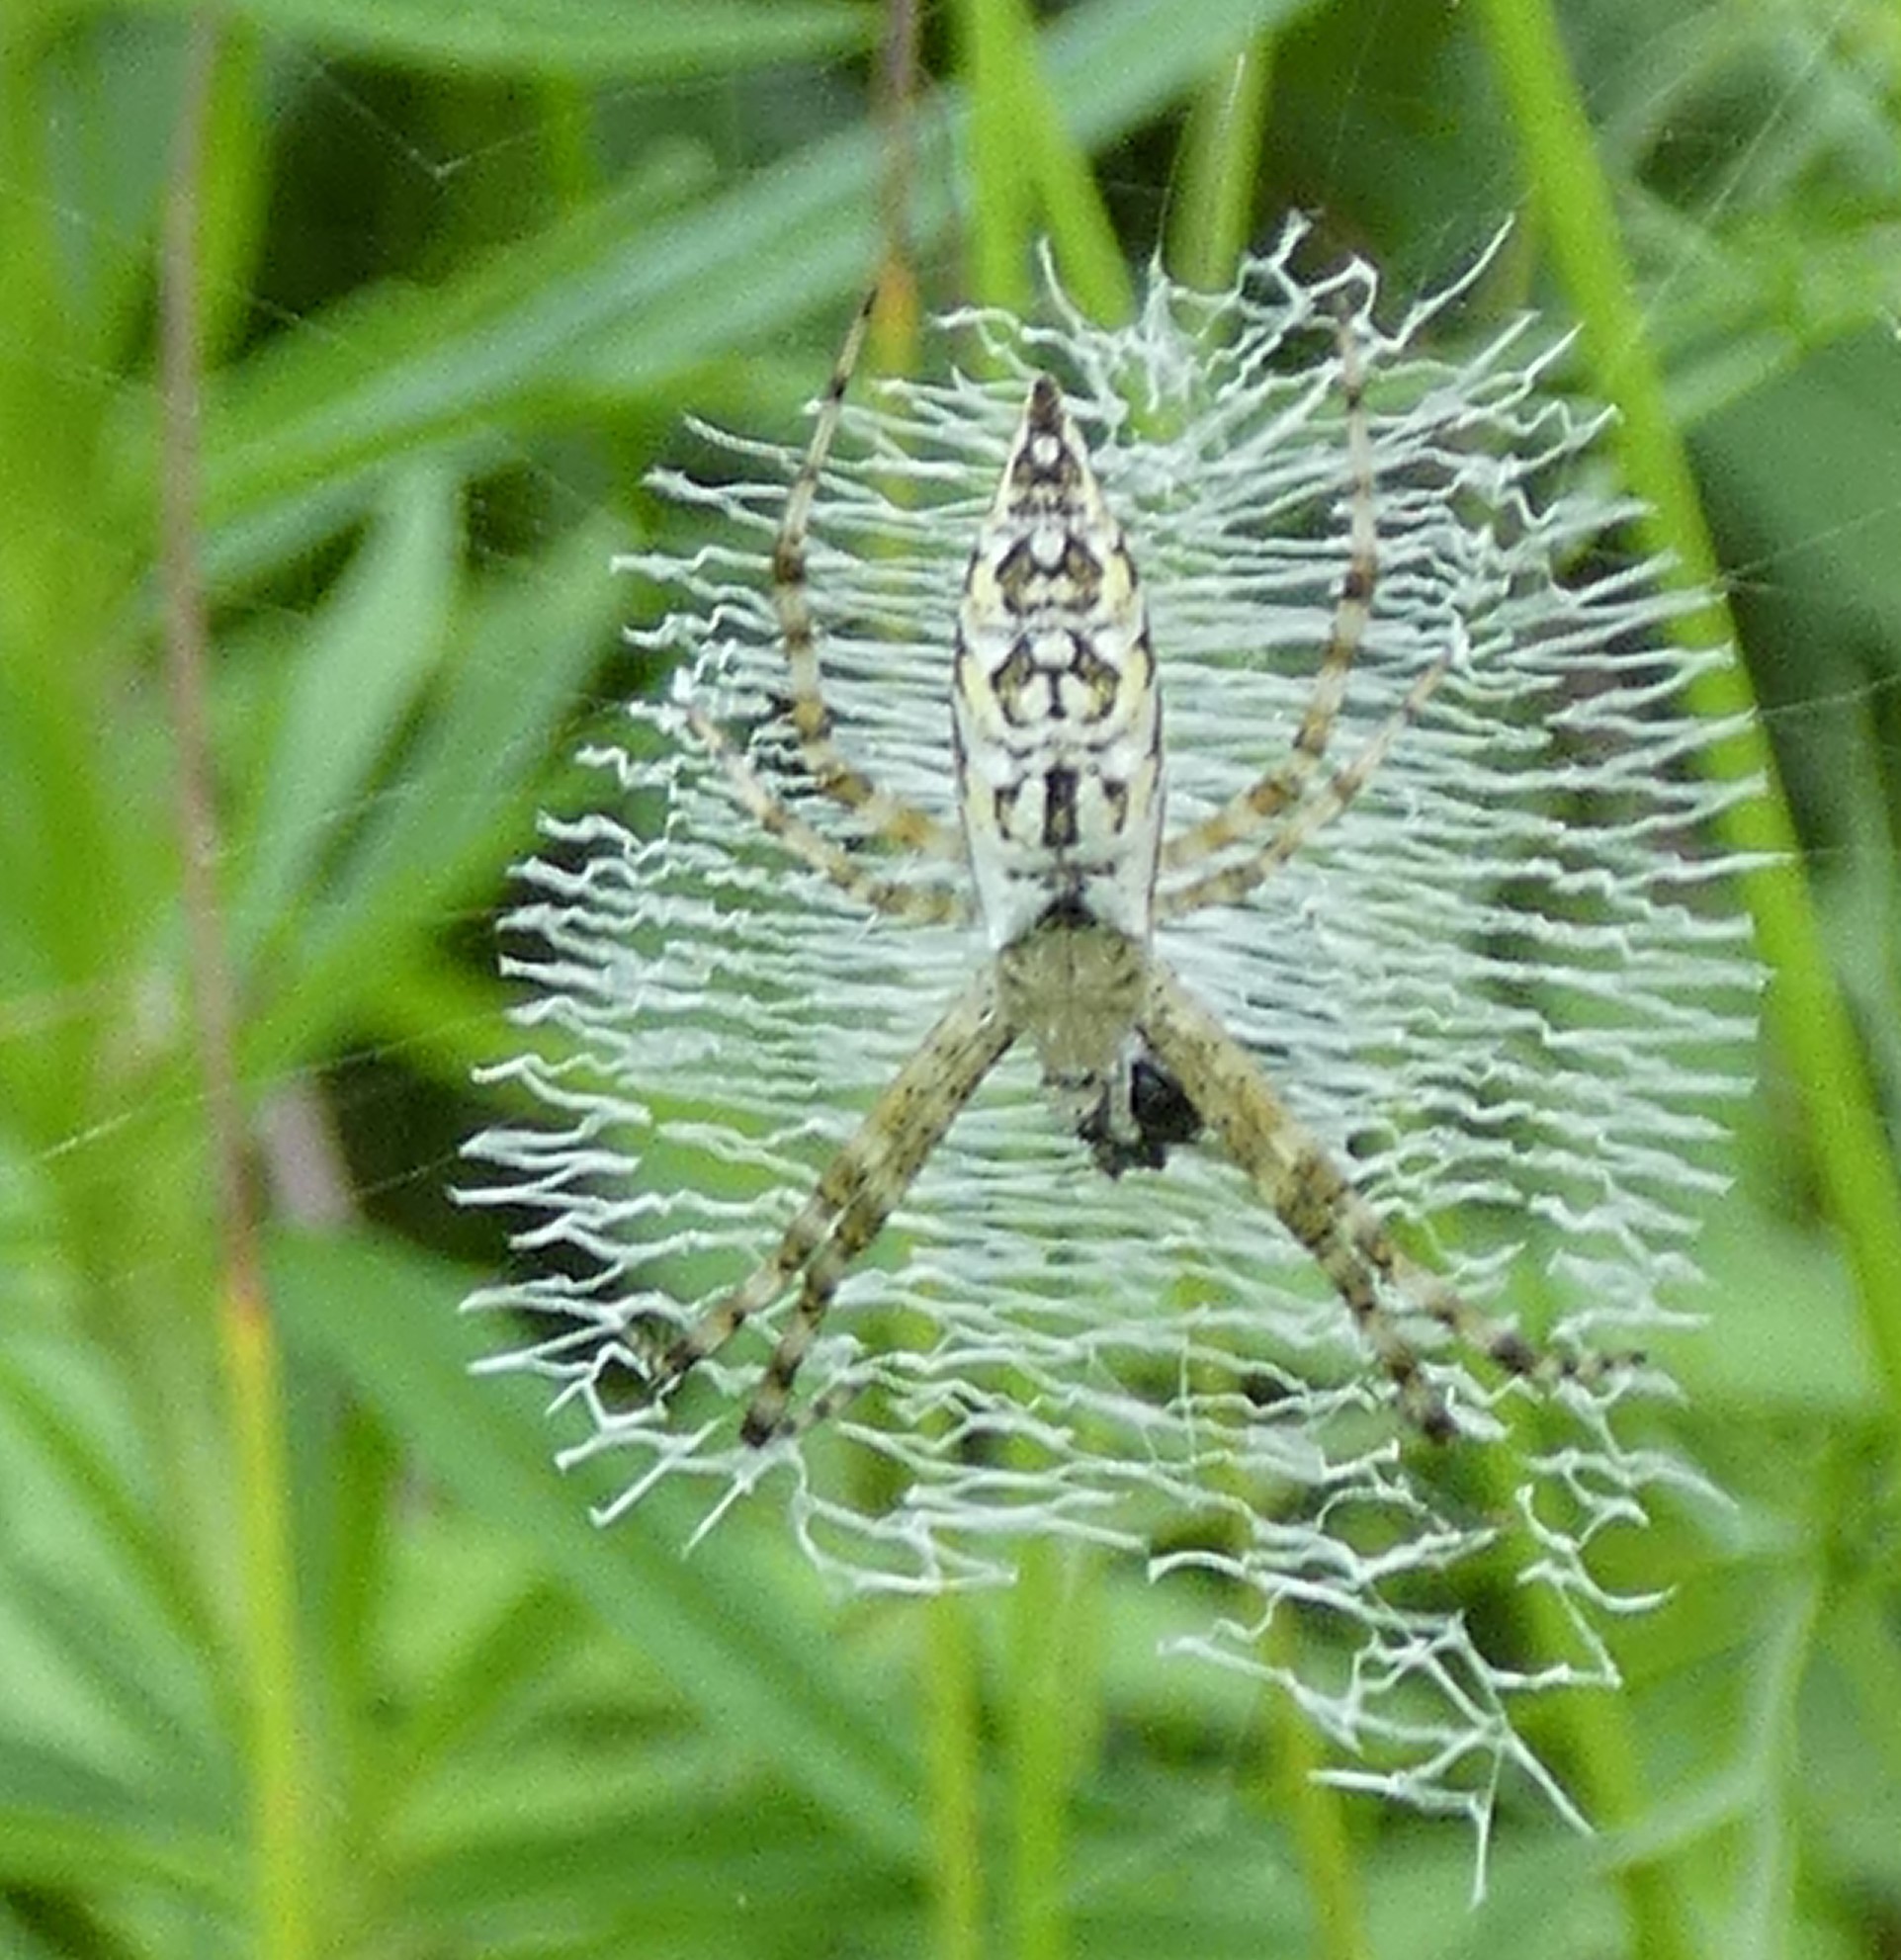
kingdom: Animalia
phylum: Arthropoda
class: Arachnida
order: Araneae
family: Araneidae
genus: Argiope
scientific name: Argiope aurantia
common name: Orb weavers
